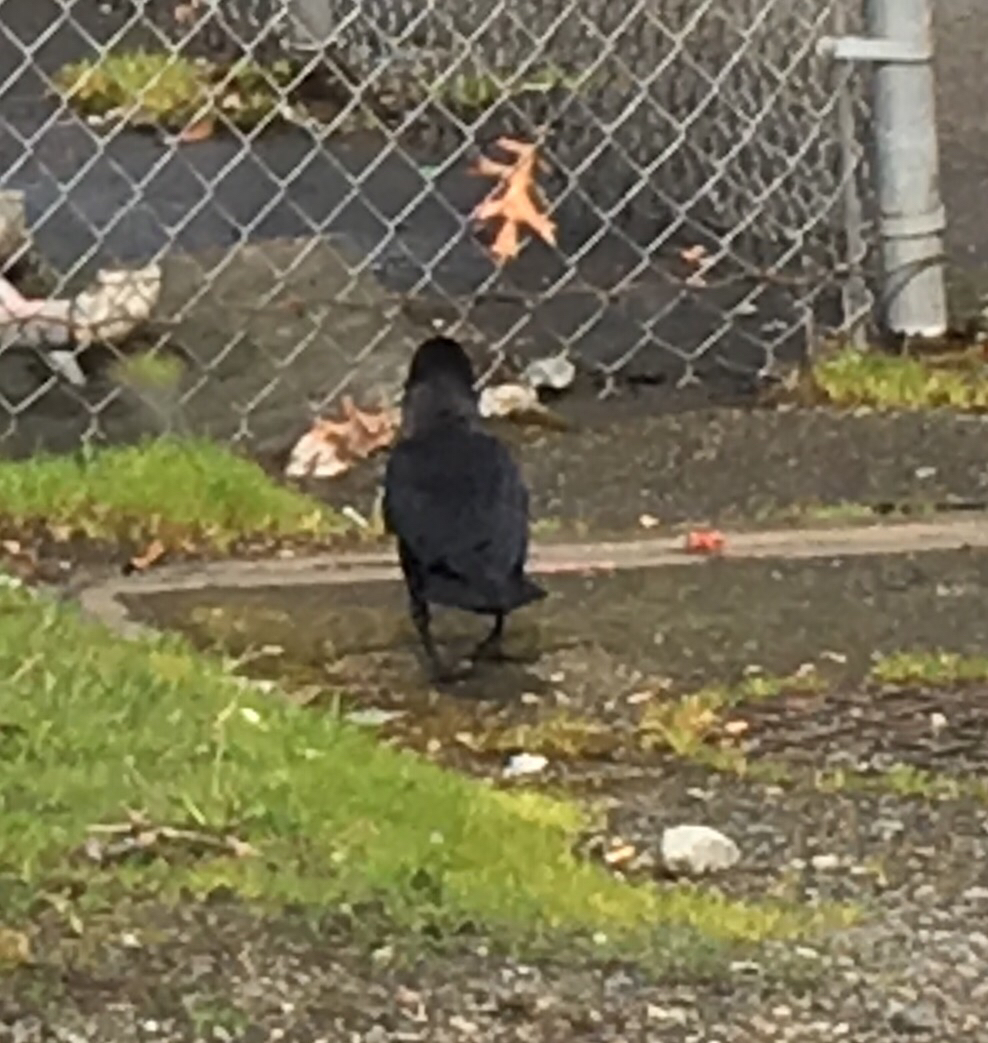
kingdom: Animalia
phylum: Chordata
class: Aves
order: Passeriformes
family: Corvidae
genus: Corvus
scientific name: Corvus brachyrhynchos
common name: American crow
